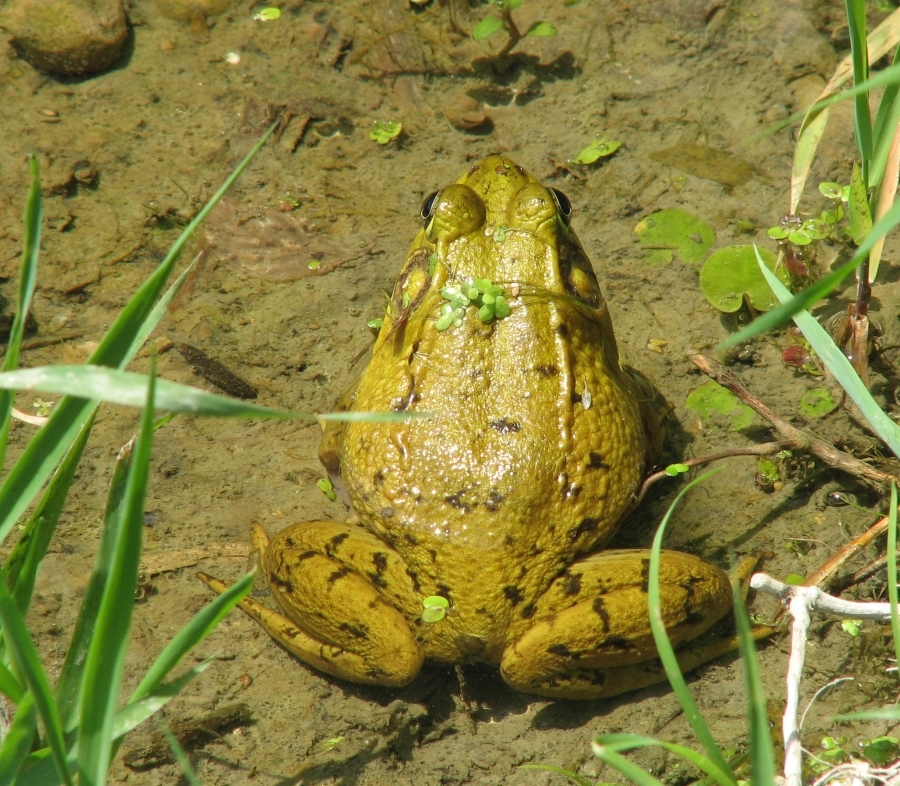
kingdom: Animalia
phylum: Chordata
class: Amphibia
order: Anura
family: Ranidae
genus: Lithobates
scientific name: Lithobates clamitans
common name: Green frog
